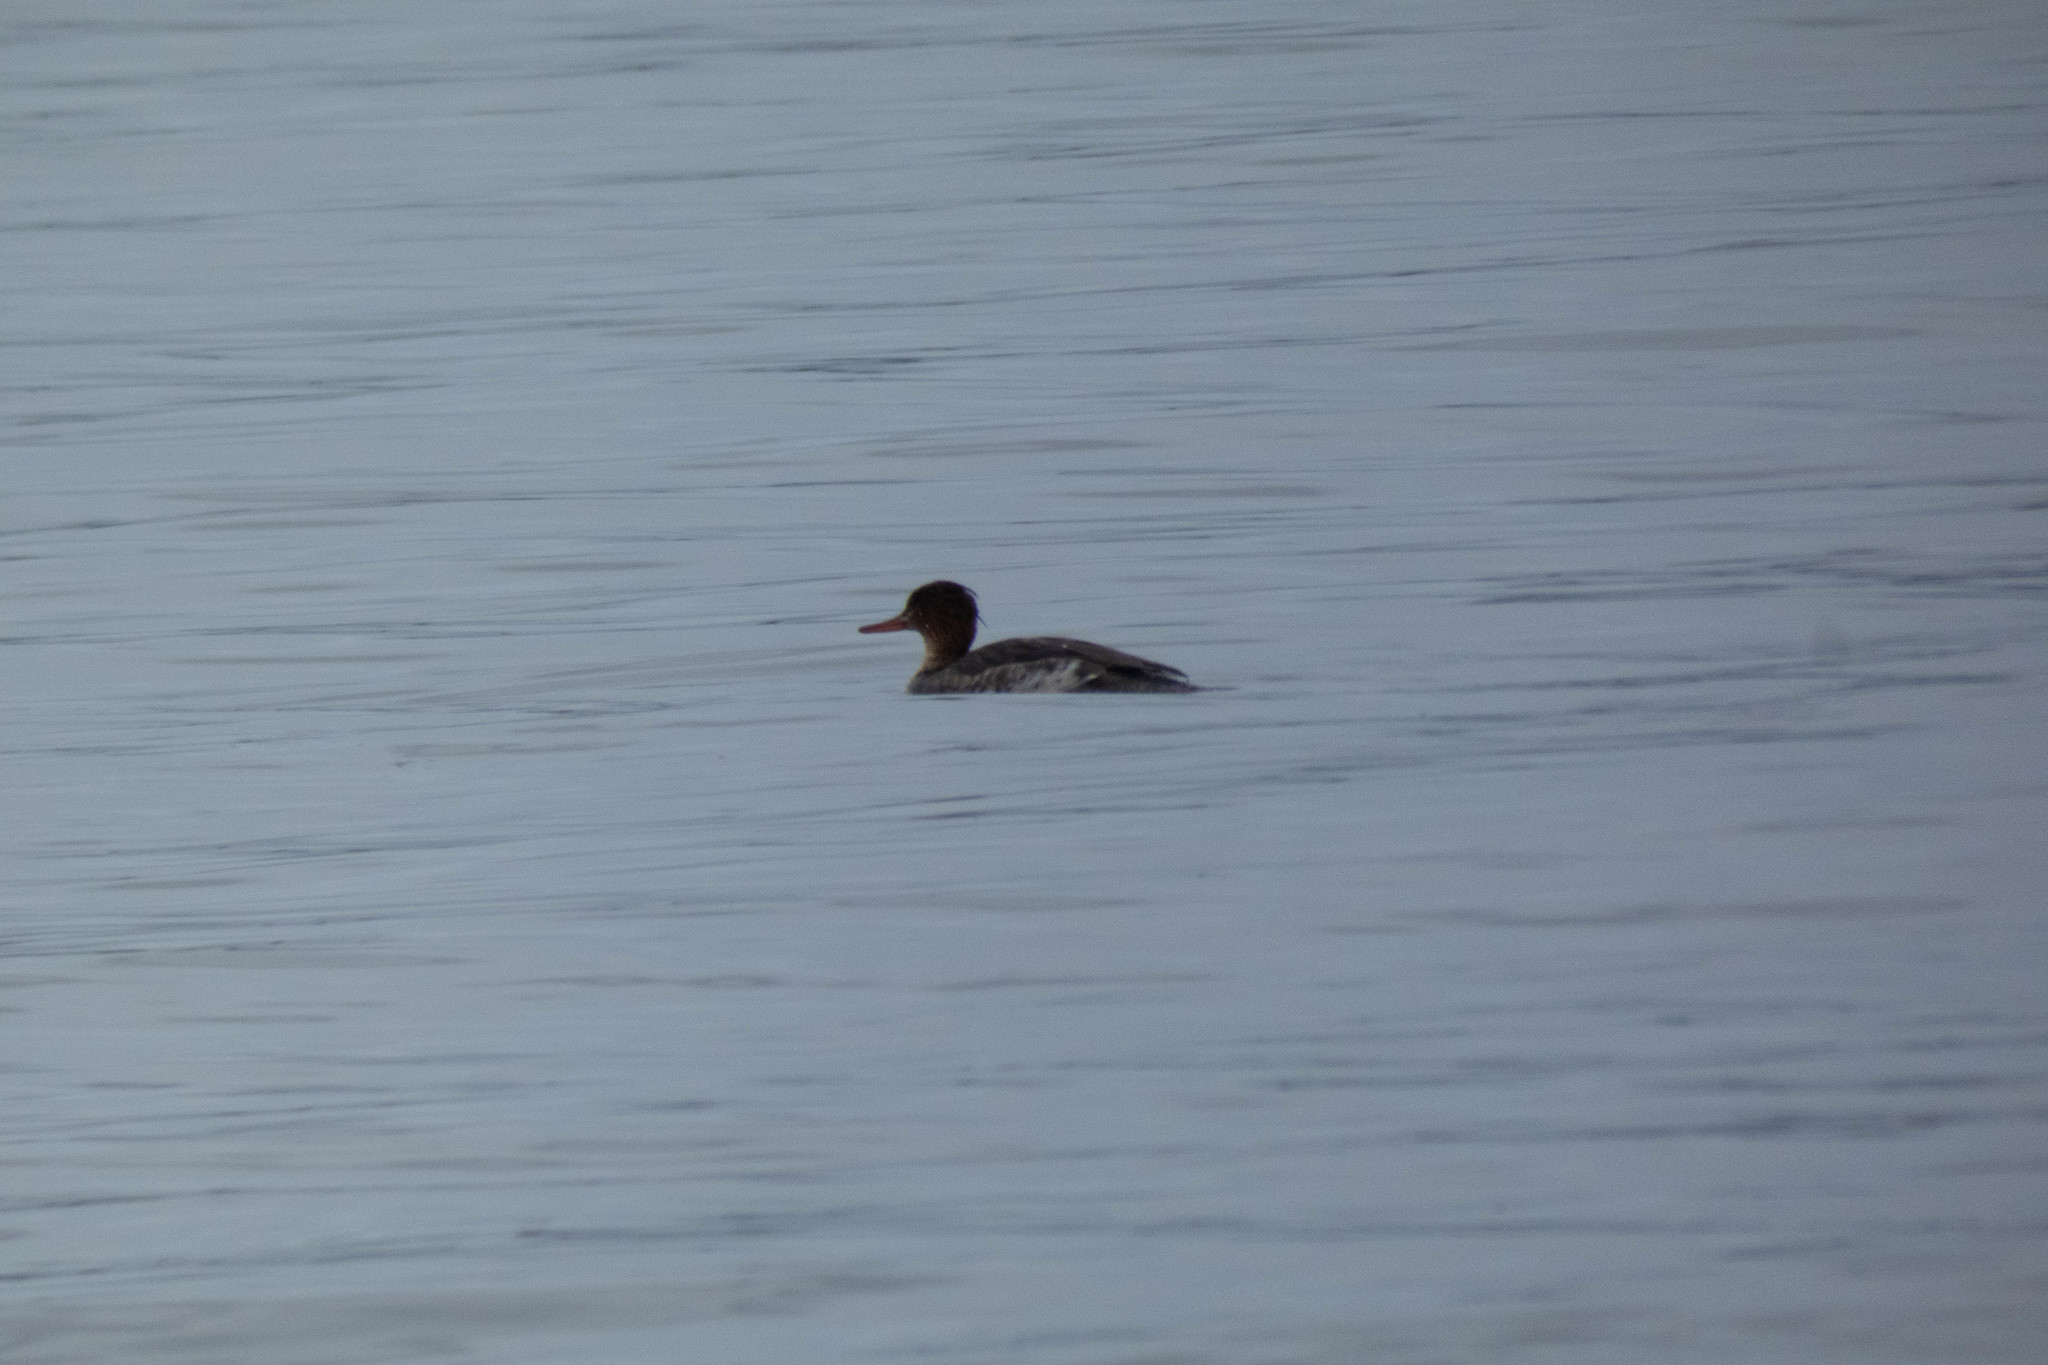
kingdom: Animalia
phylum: Chordata
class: Aves
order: Anseriformes
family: Anatidae
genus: Mergus
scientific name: Mergus serrator
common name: Red-breasted merganser
